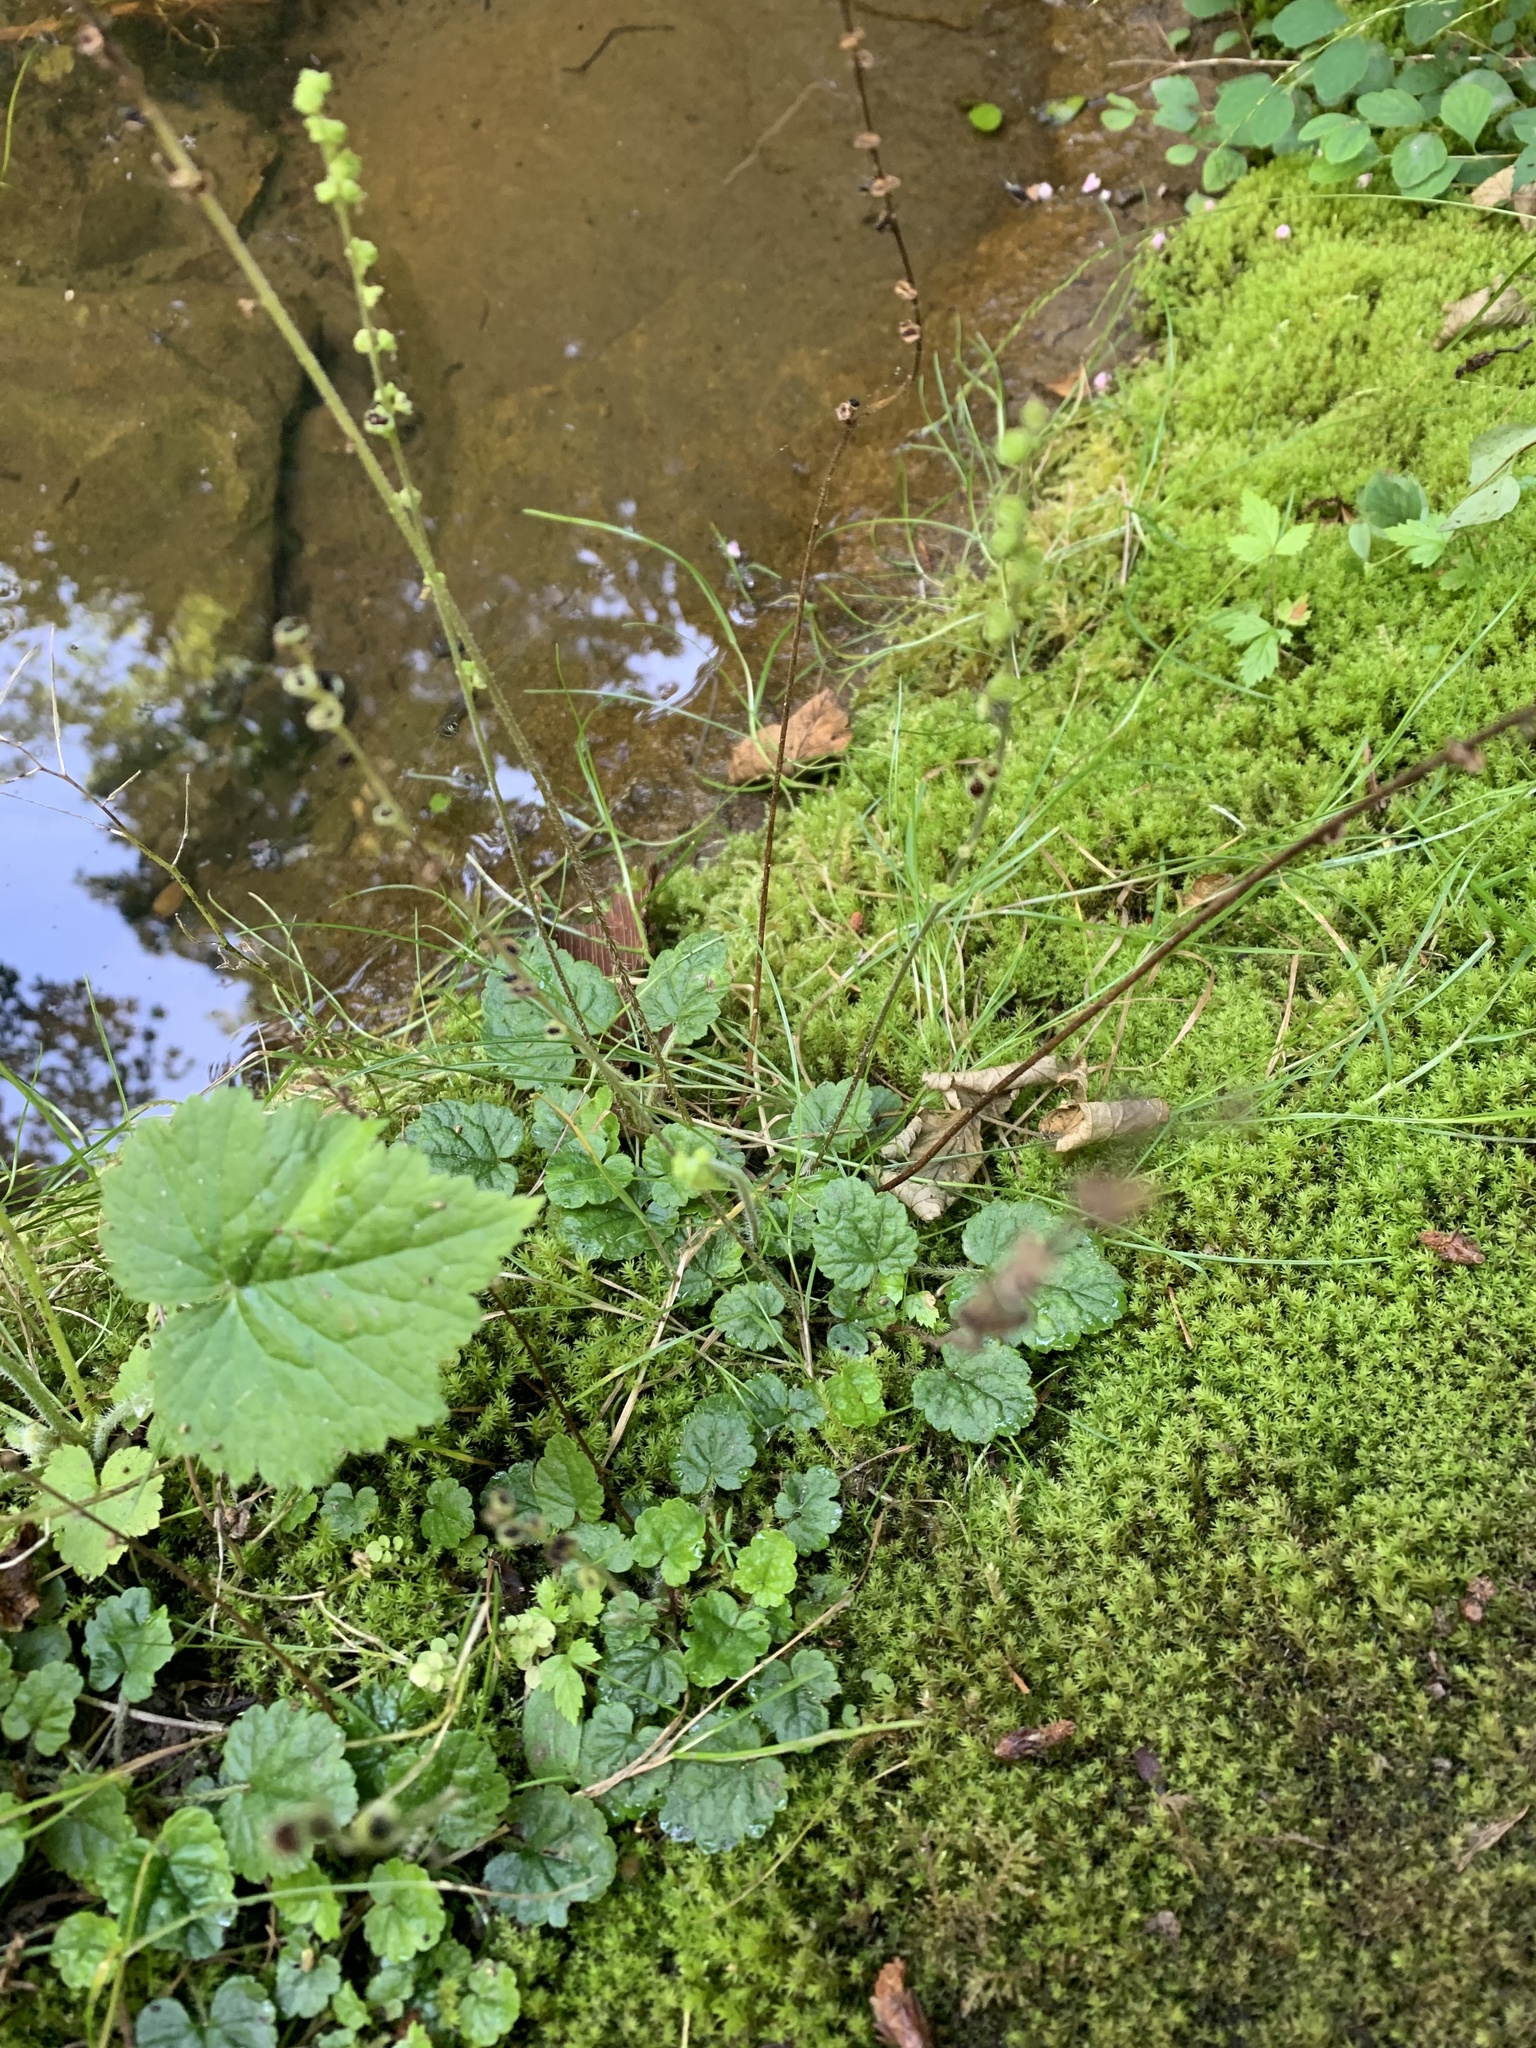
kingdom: Plantae
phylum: Tracheophyta
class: Magnoliopsida
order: Saxifragales
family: Saxifragaceae
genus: Brewerimitella
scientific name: Brewerimitella ovalis
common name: Coastal bishop's-cap
